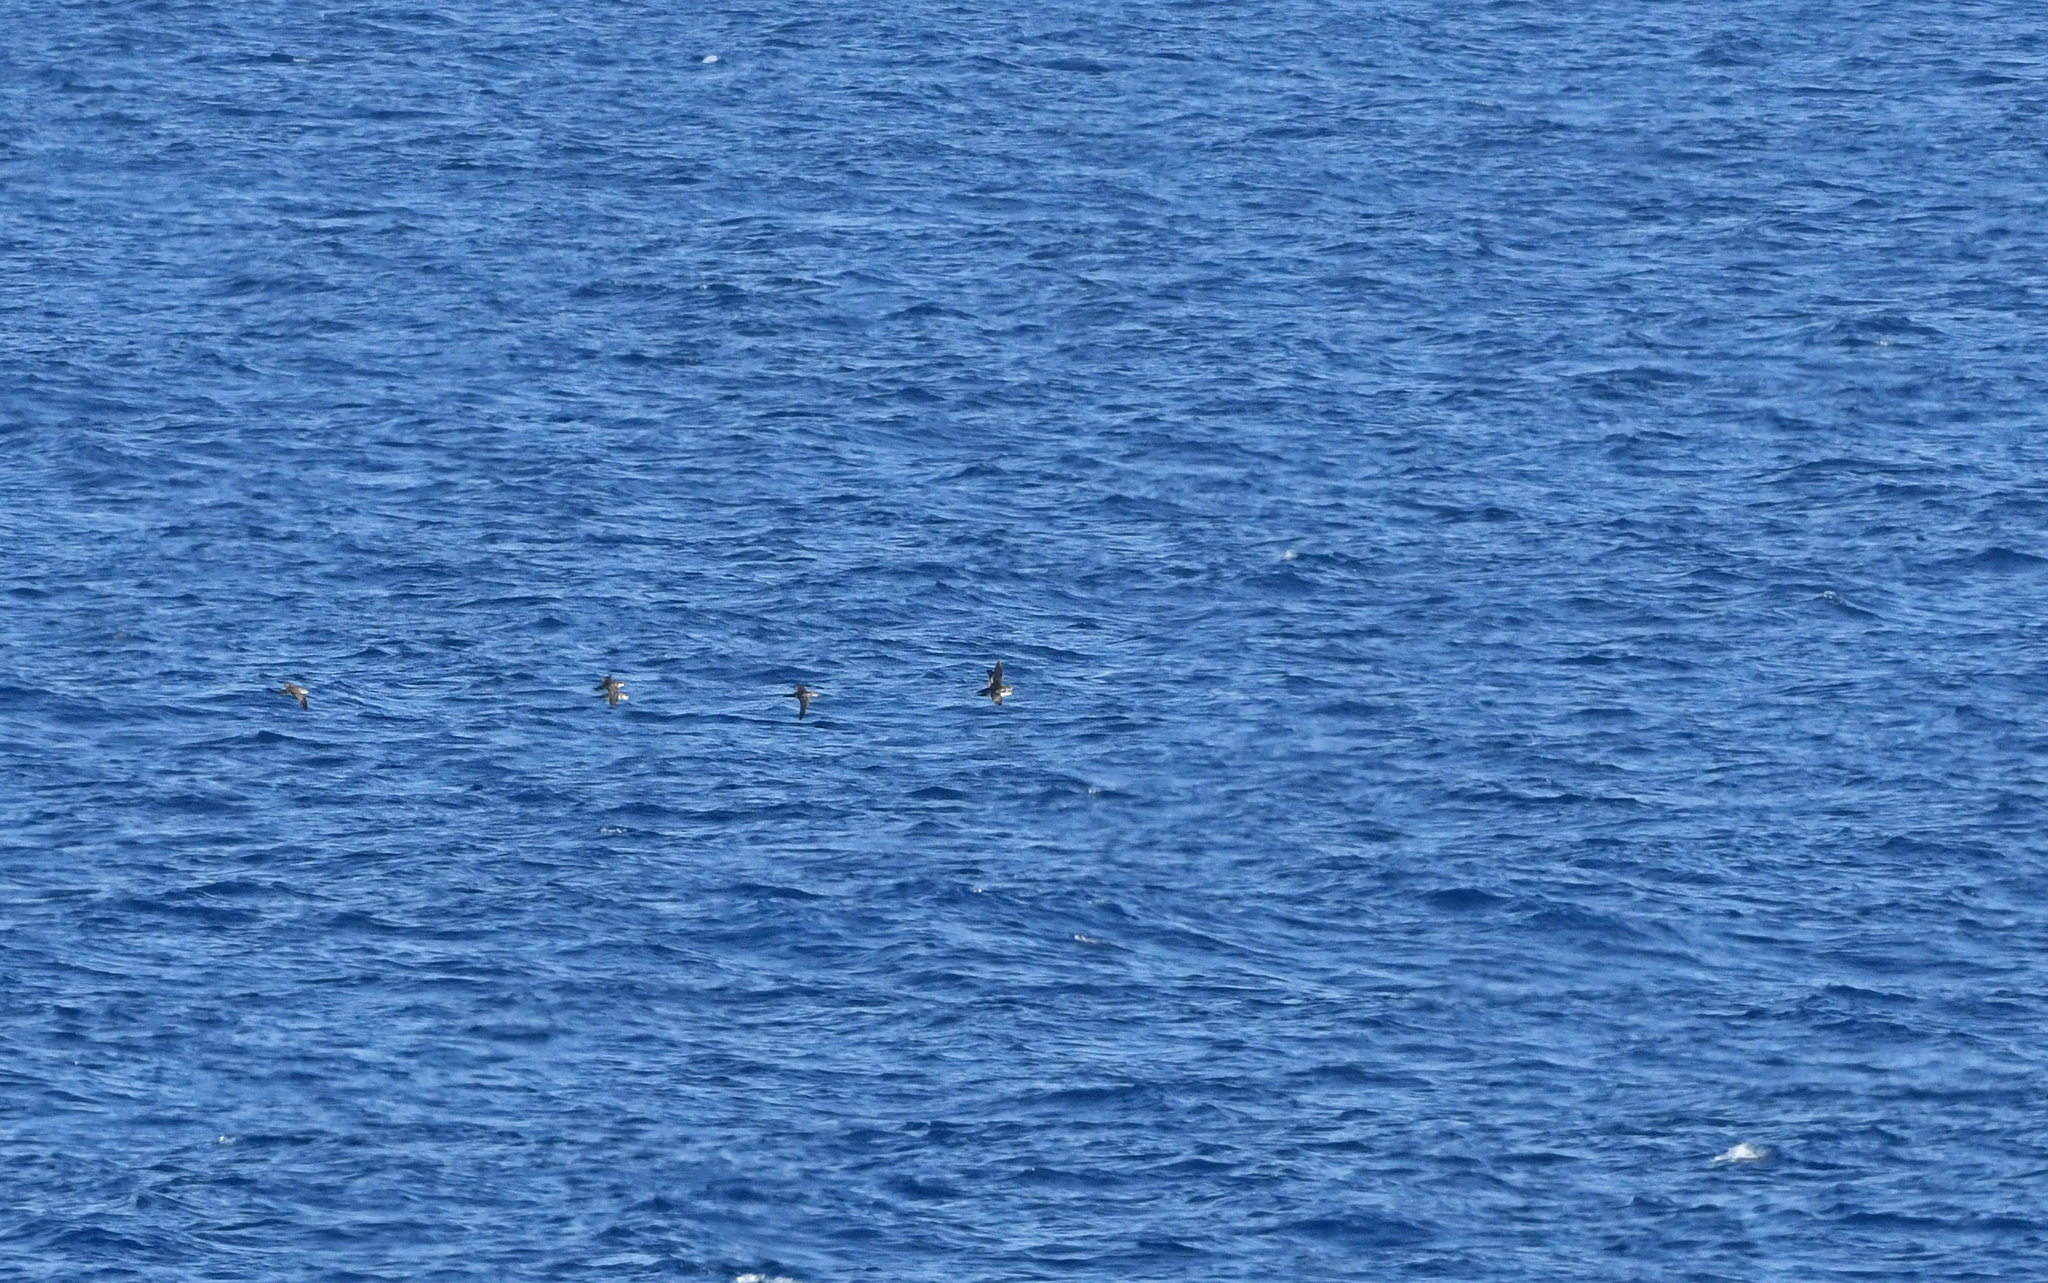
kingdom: Animalia
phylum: Chordata
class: Aves
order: Procellariiformes
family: Procellariidae
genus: Puffinus
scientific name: Puffinus yelkouan
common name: Yelkouan shearwater
